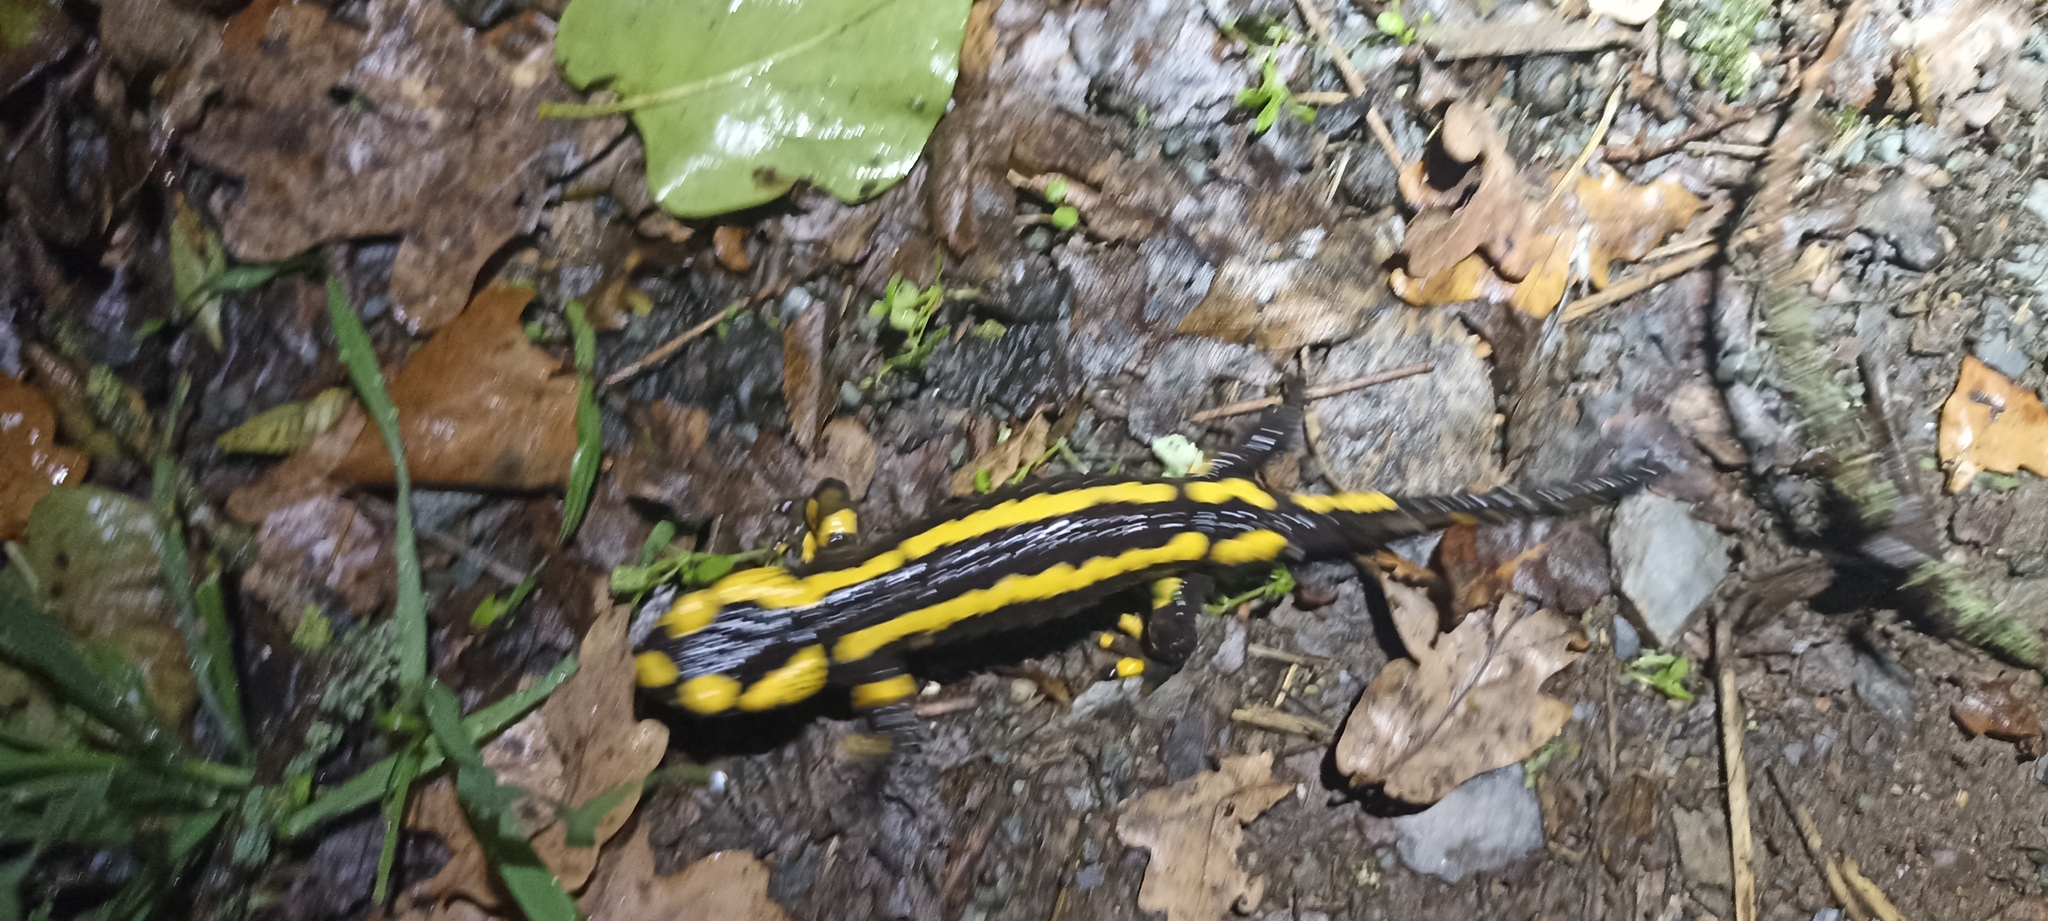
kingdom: Animalia
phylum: Chordata
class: Amphibia
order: Caudata
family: Salamandridae
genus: Salamandra
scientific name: Salamandra salamandra
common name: Fire salamander
